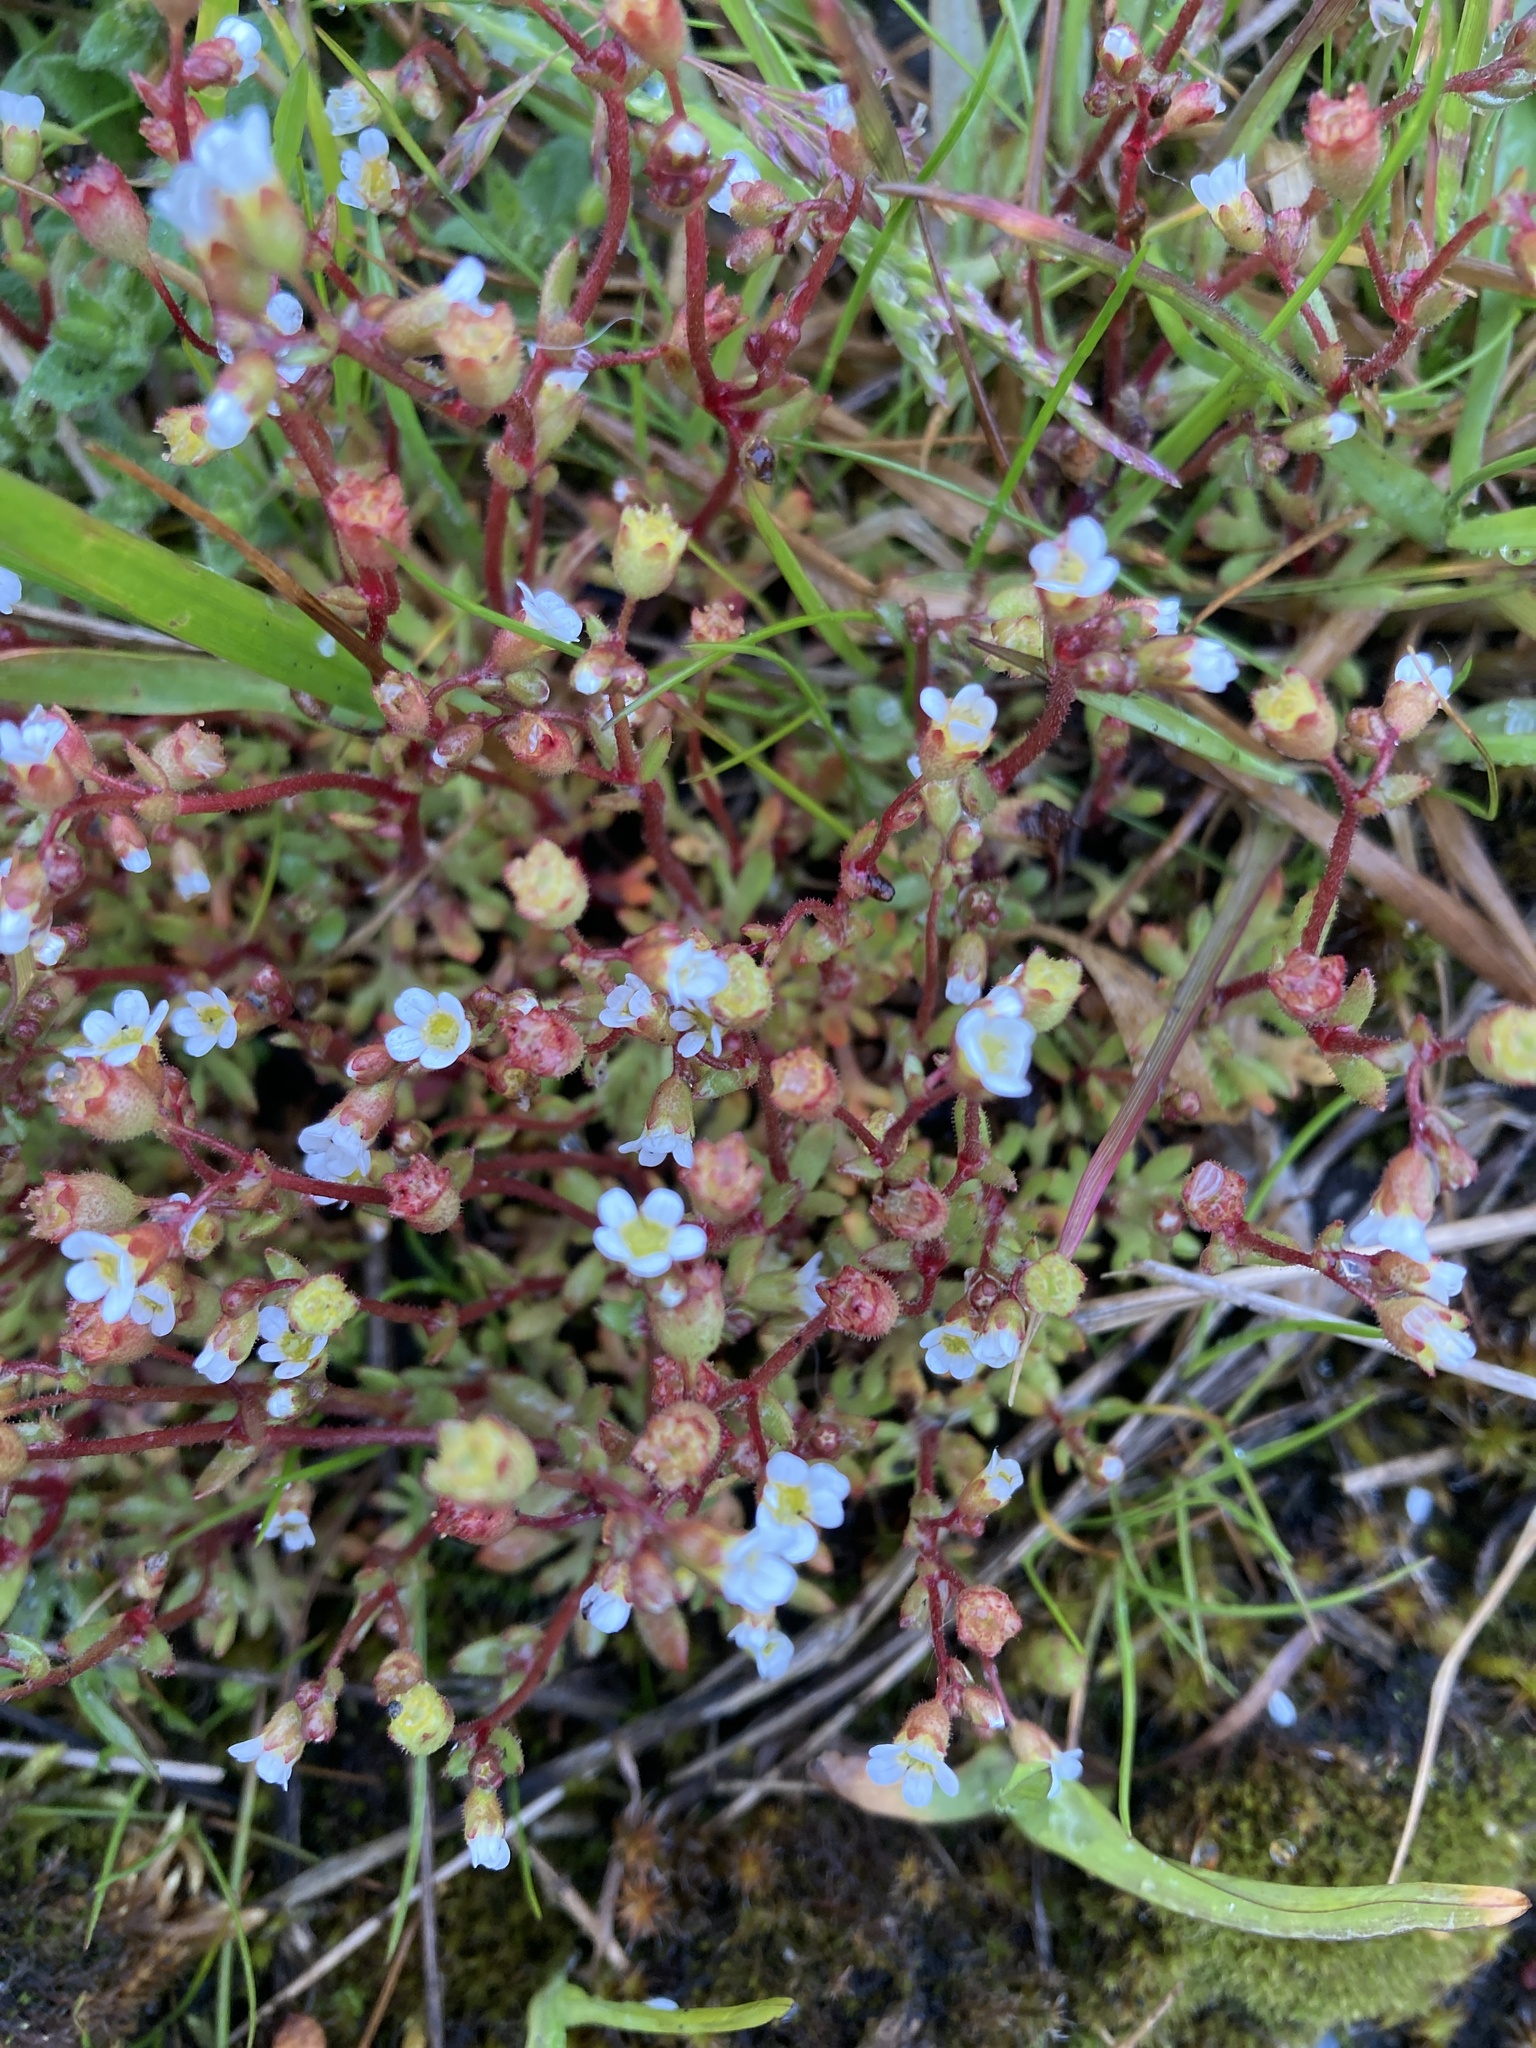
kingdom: Plantae
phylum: Tracheophyta
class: Magnoliopsida
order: Saxifragales
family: Saxifragaceae
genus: Saxifraga
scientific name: Saxifraga tridactylites
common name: Rue-leaved saxifrage
